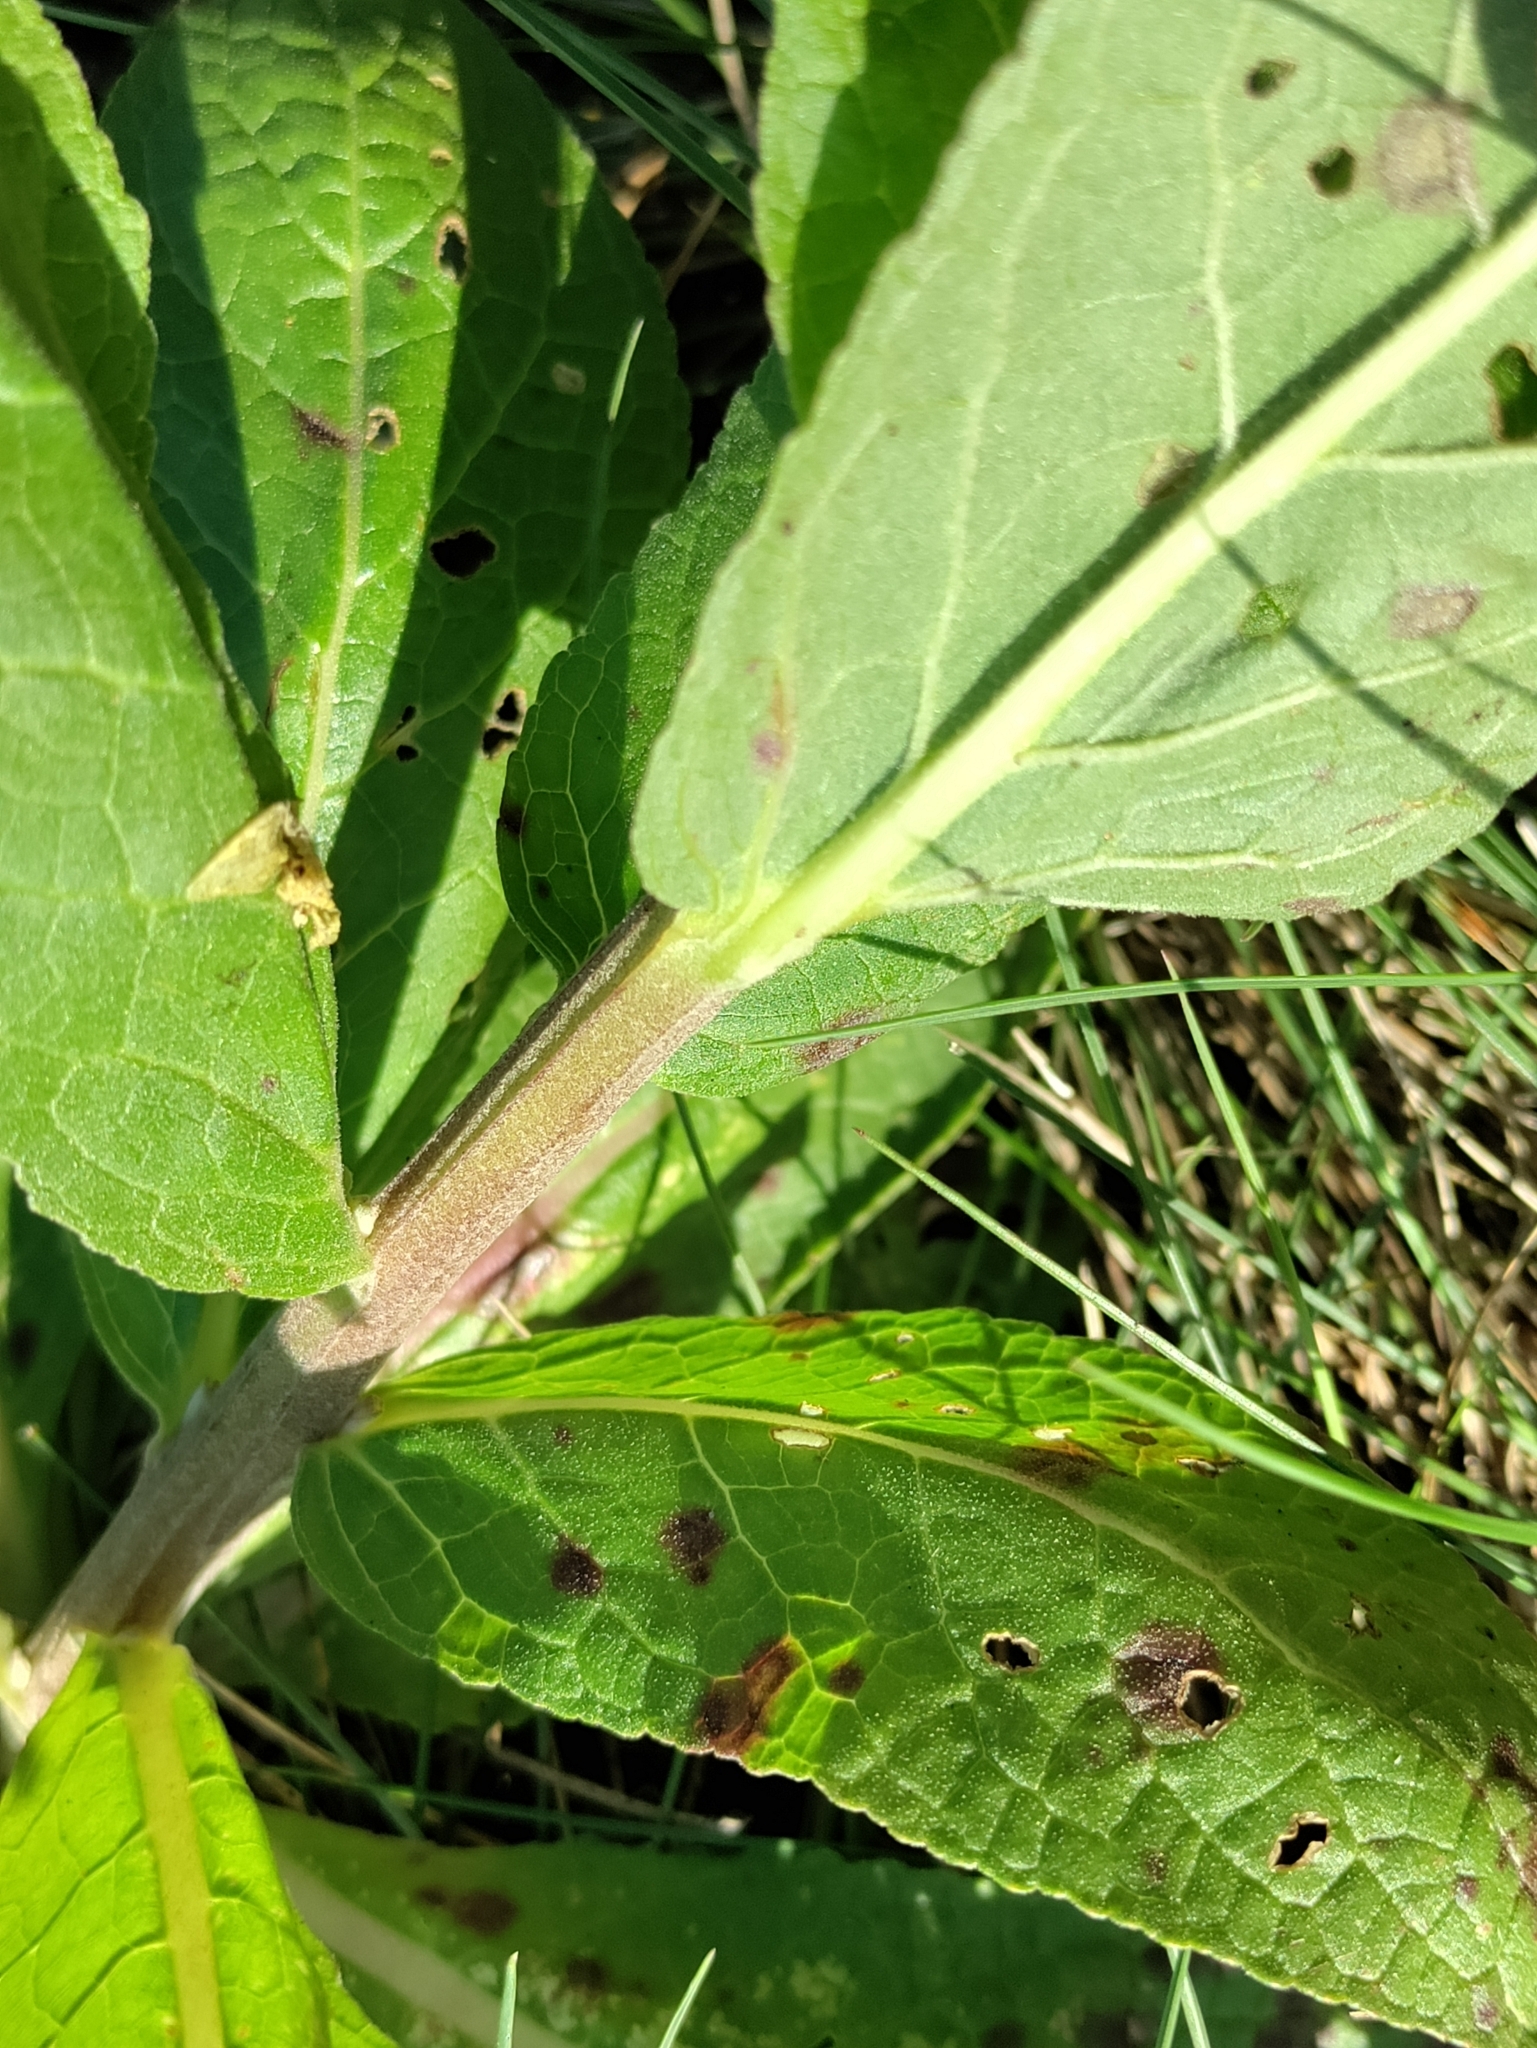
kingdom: Plantae
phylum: Tracheophyta
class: Magnoliopsida
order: Lamiales
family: Scrophulariaceae
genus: Verbascum
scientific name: Verbascum lychnitis
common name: White mullein
